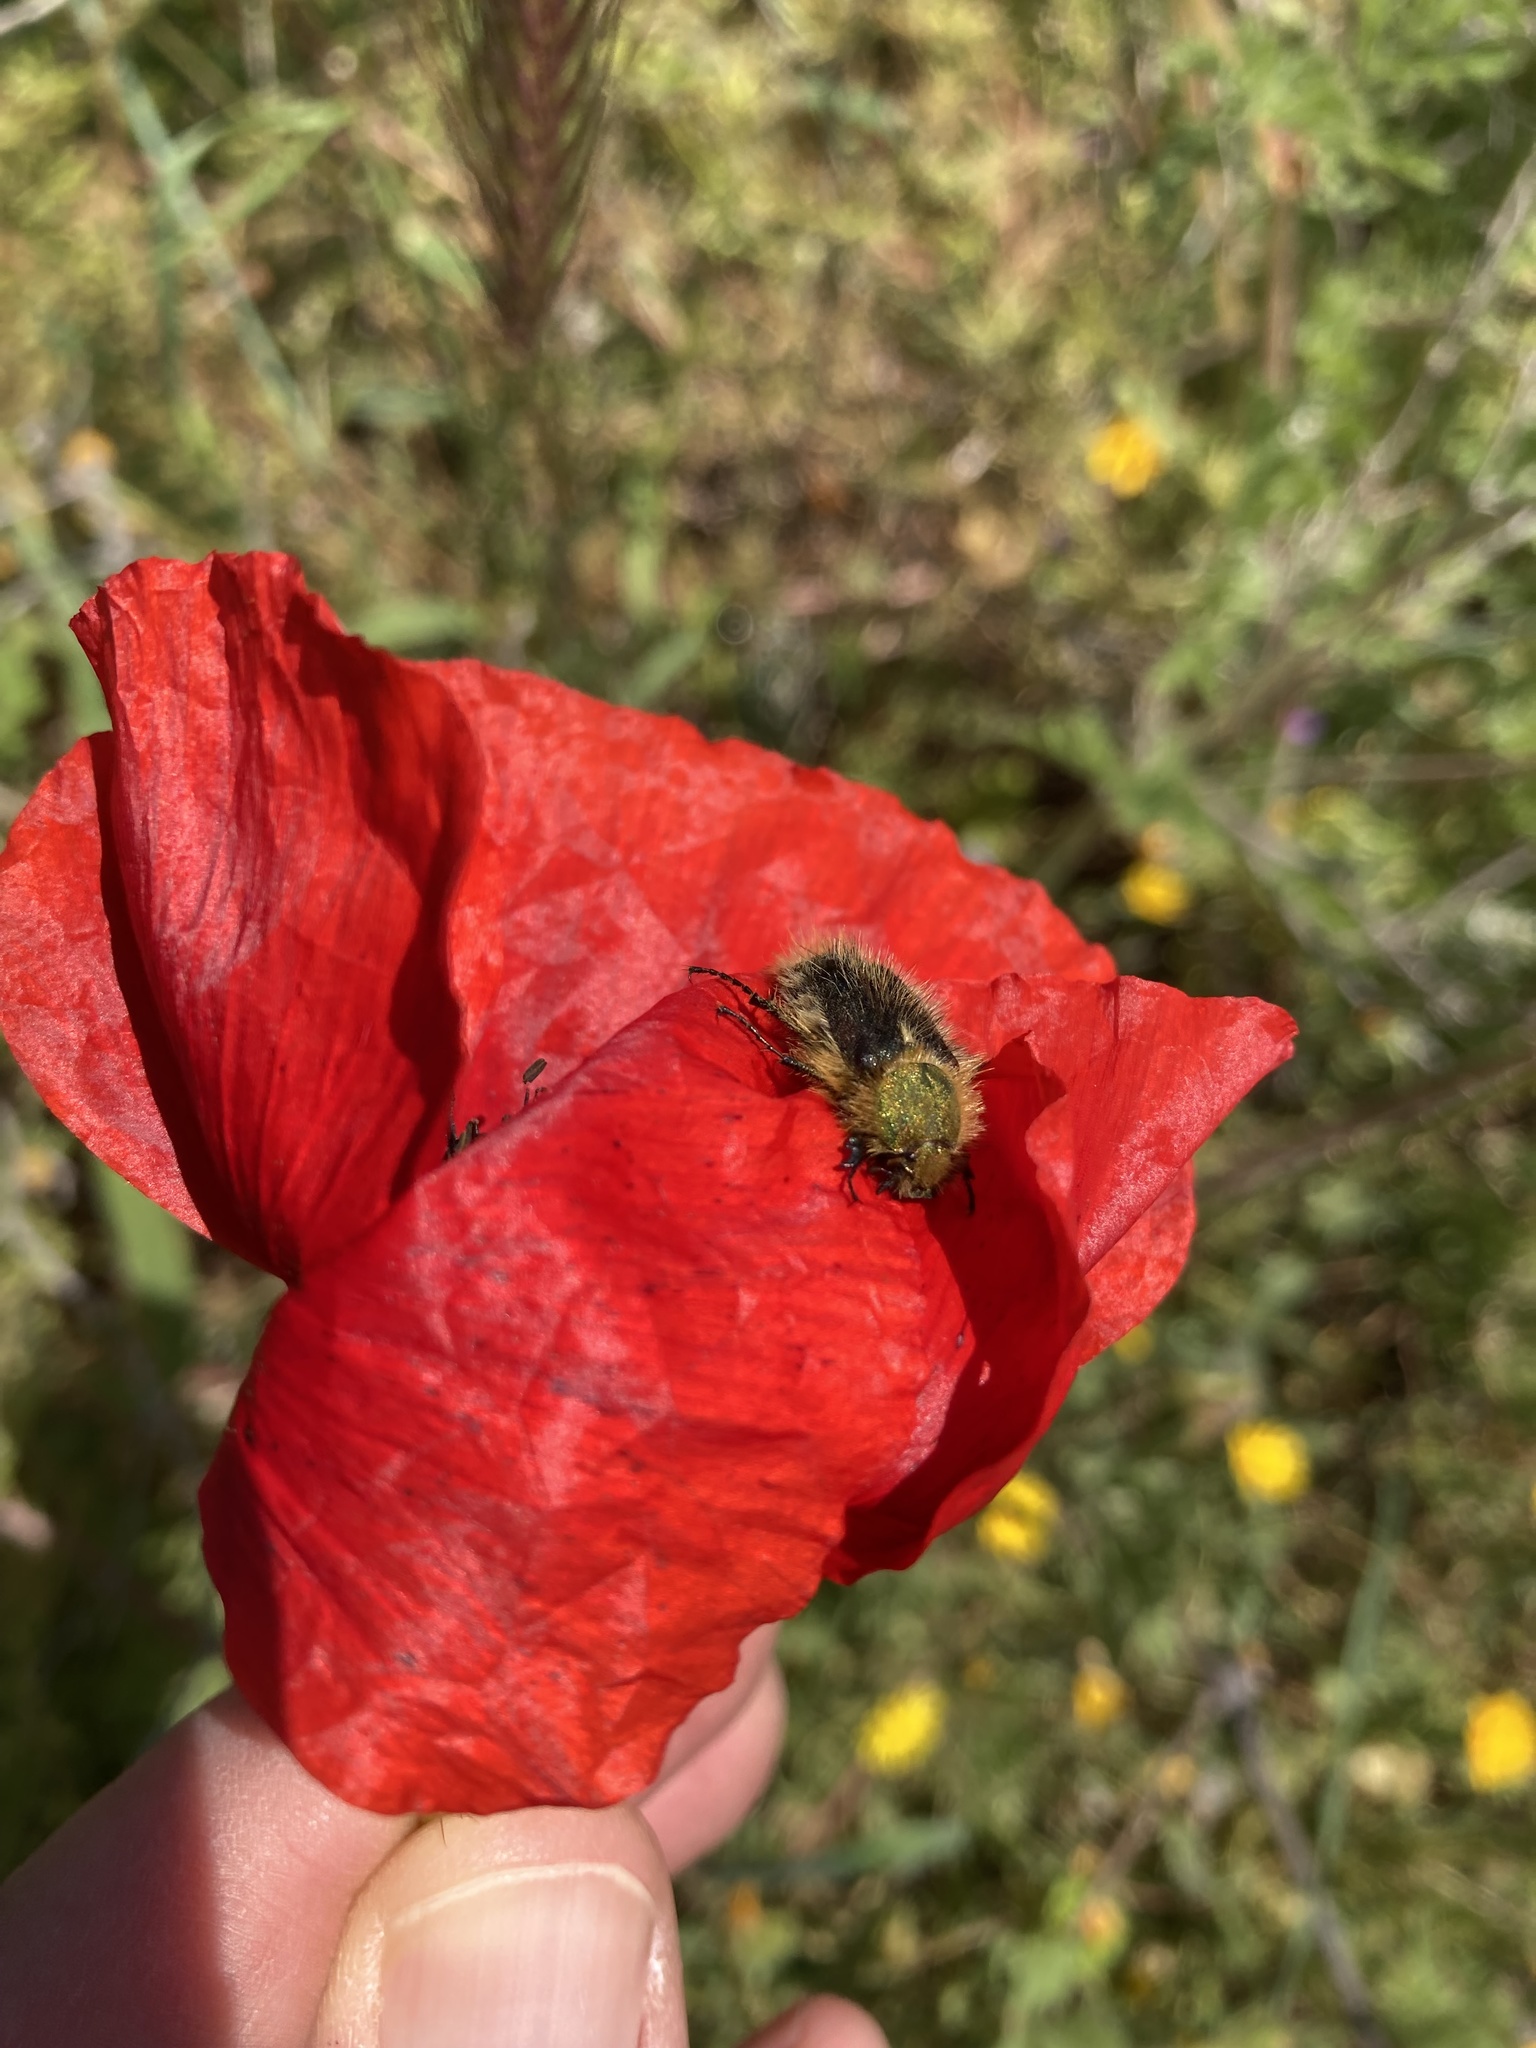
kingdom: Animalia
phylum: Arthropoda
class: Insecta
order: Coleoptera
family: Glaphyridae
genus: Pygopleurus
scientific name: Pygopleurus viridisuturatus
